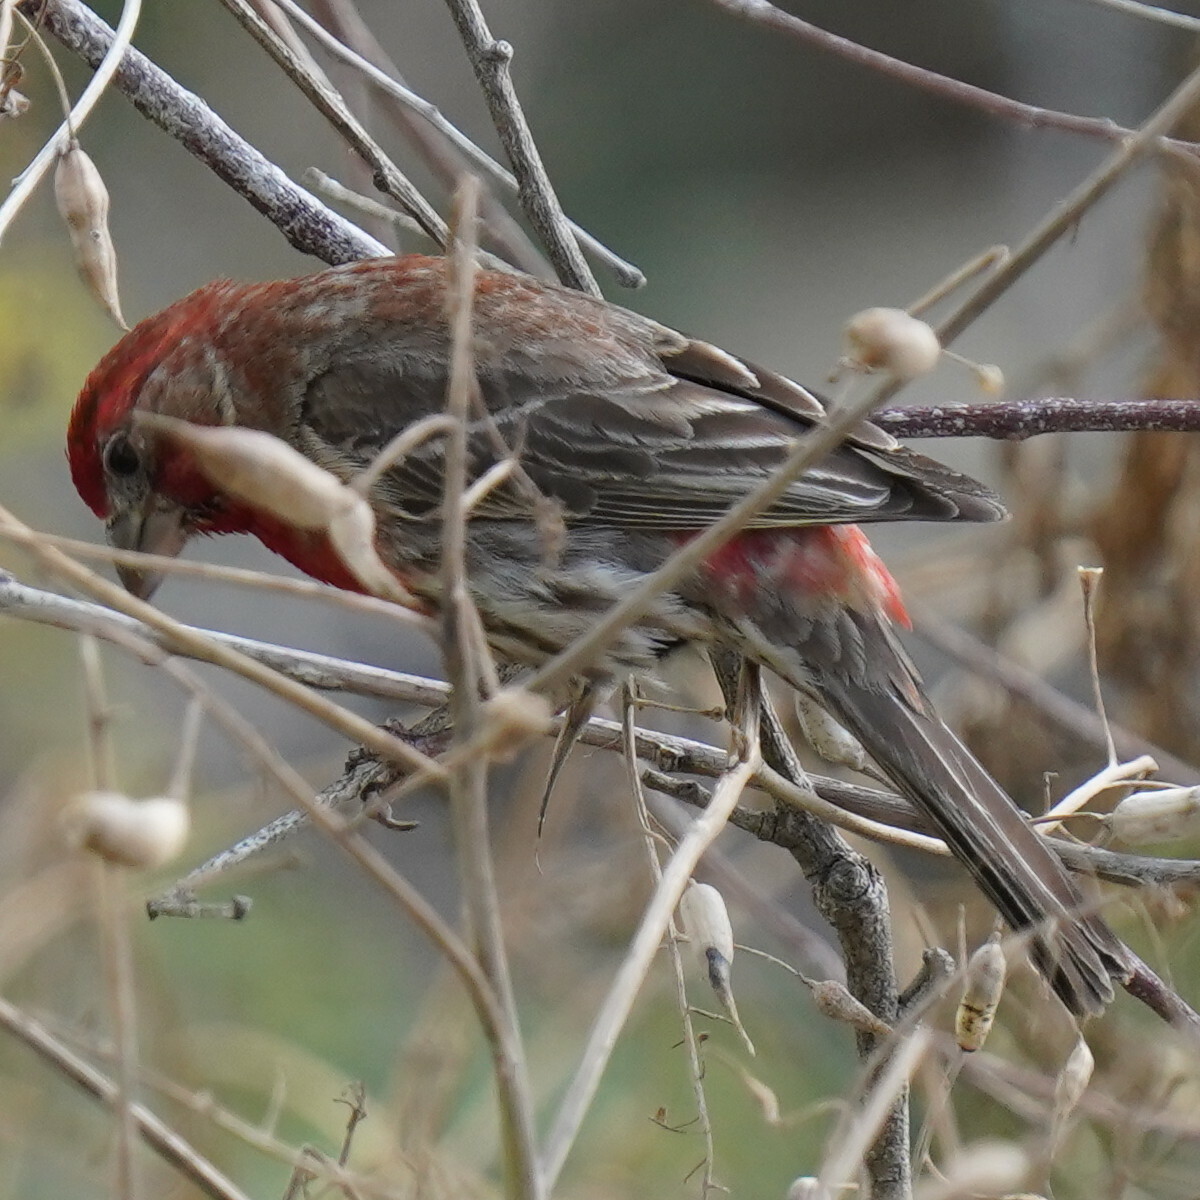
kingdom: Animalia
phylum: Chordata
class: Aves
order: Passeriformes
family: Fringillidae
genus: Haemorhous
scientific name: Haemorhous mexicanus
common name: House finch
